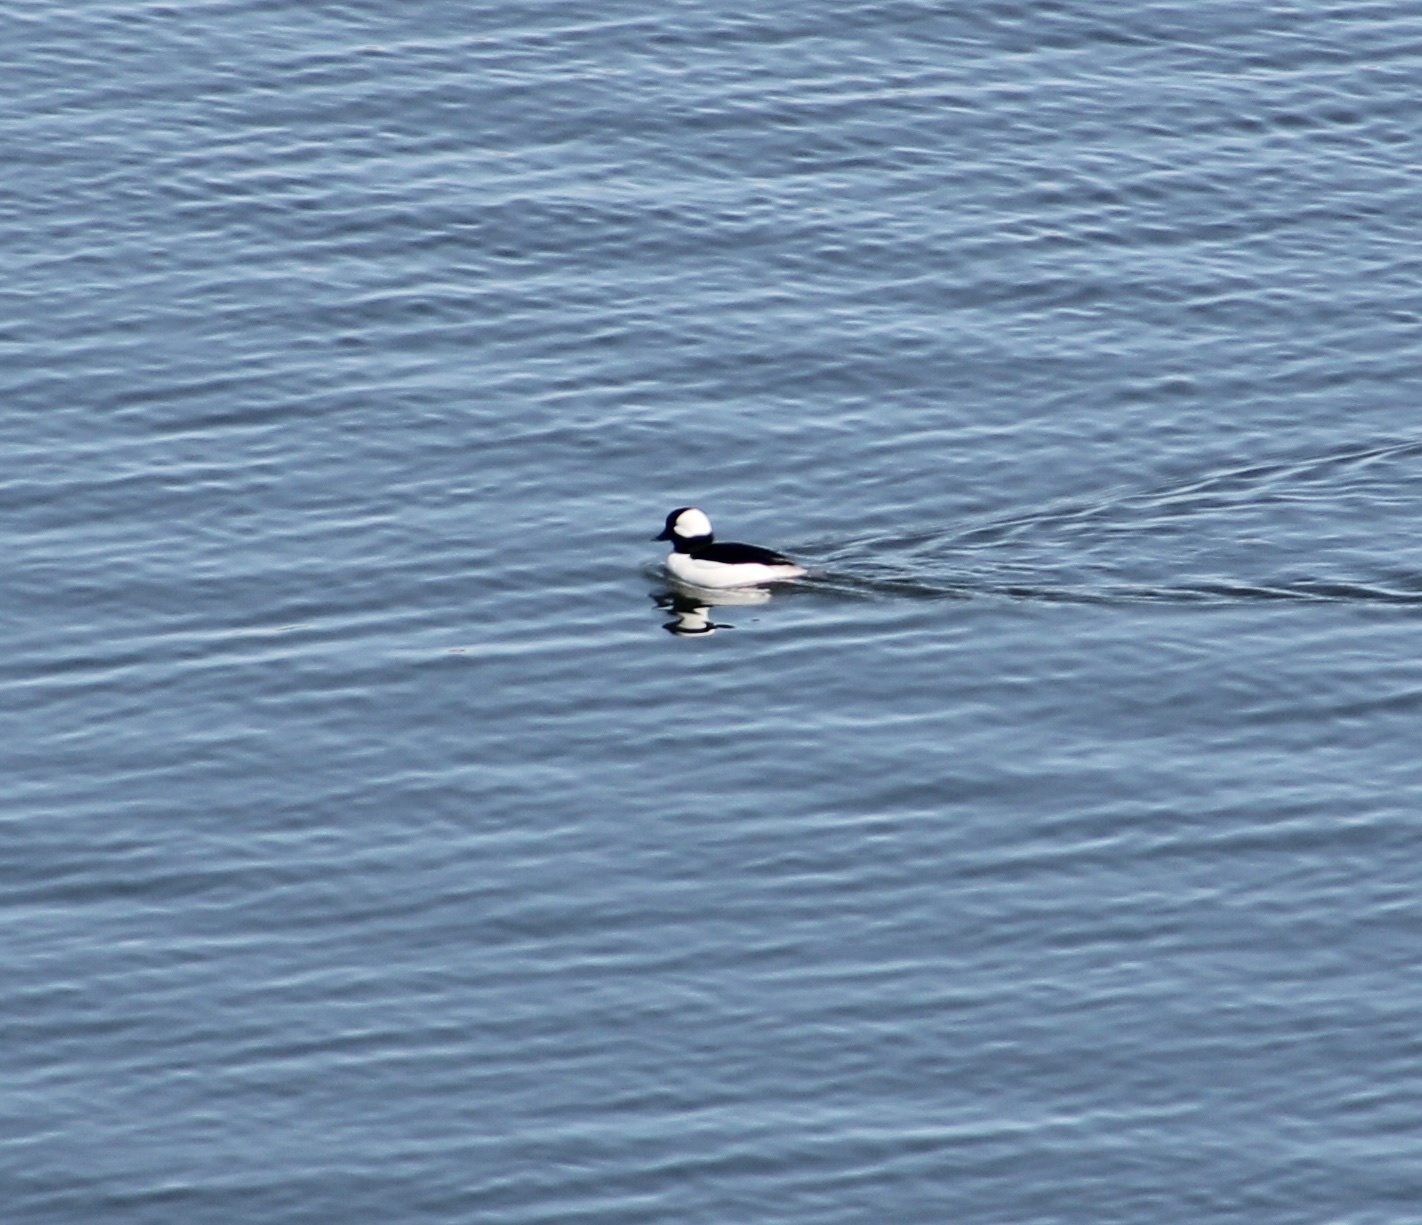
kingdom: Animalia
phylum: Chordata
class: Aves
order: Anseriformes
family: Anatidae
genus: Bucephala
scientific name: Bucephala albeola
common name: Bufflehead
